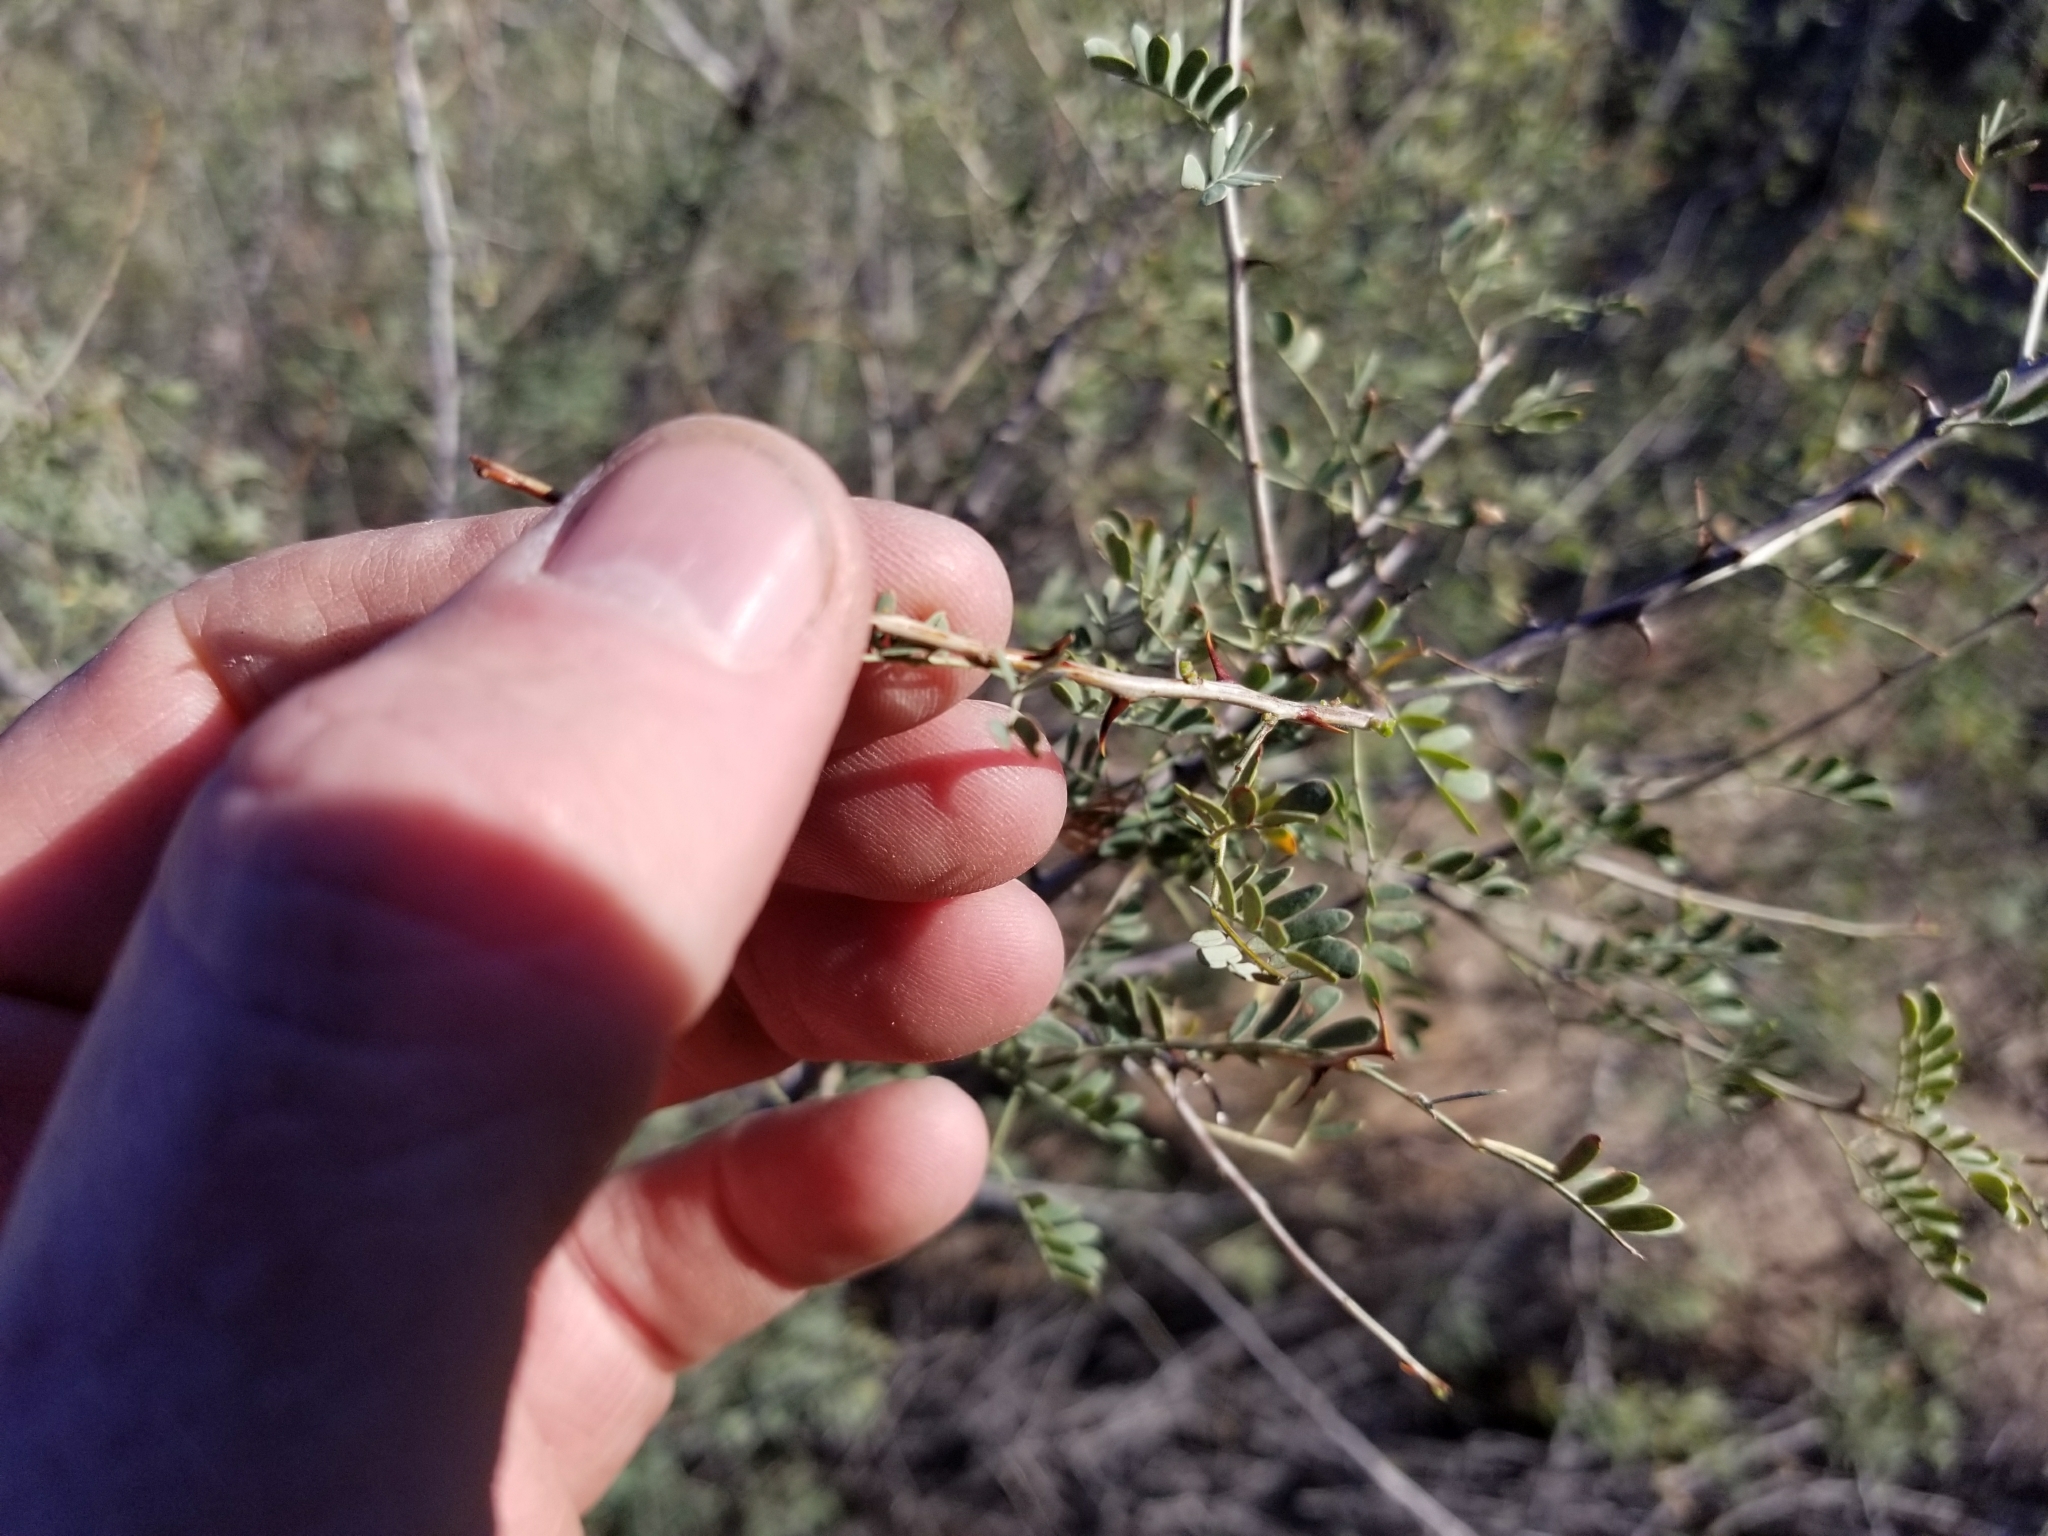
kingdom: Plantae
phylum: Tracheophyta
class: Magnoliopsida
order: Fabales
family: Fabaceae
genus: Senegalia
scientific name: Senegalia greggii
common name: Texas-mimosa
